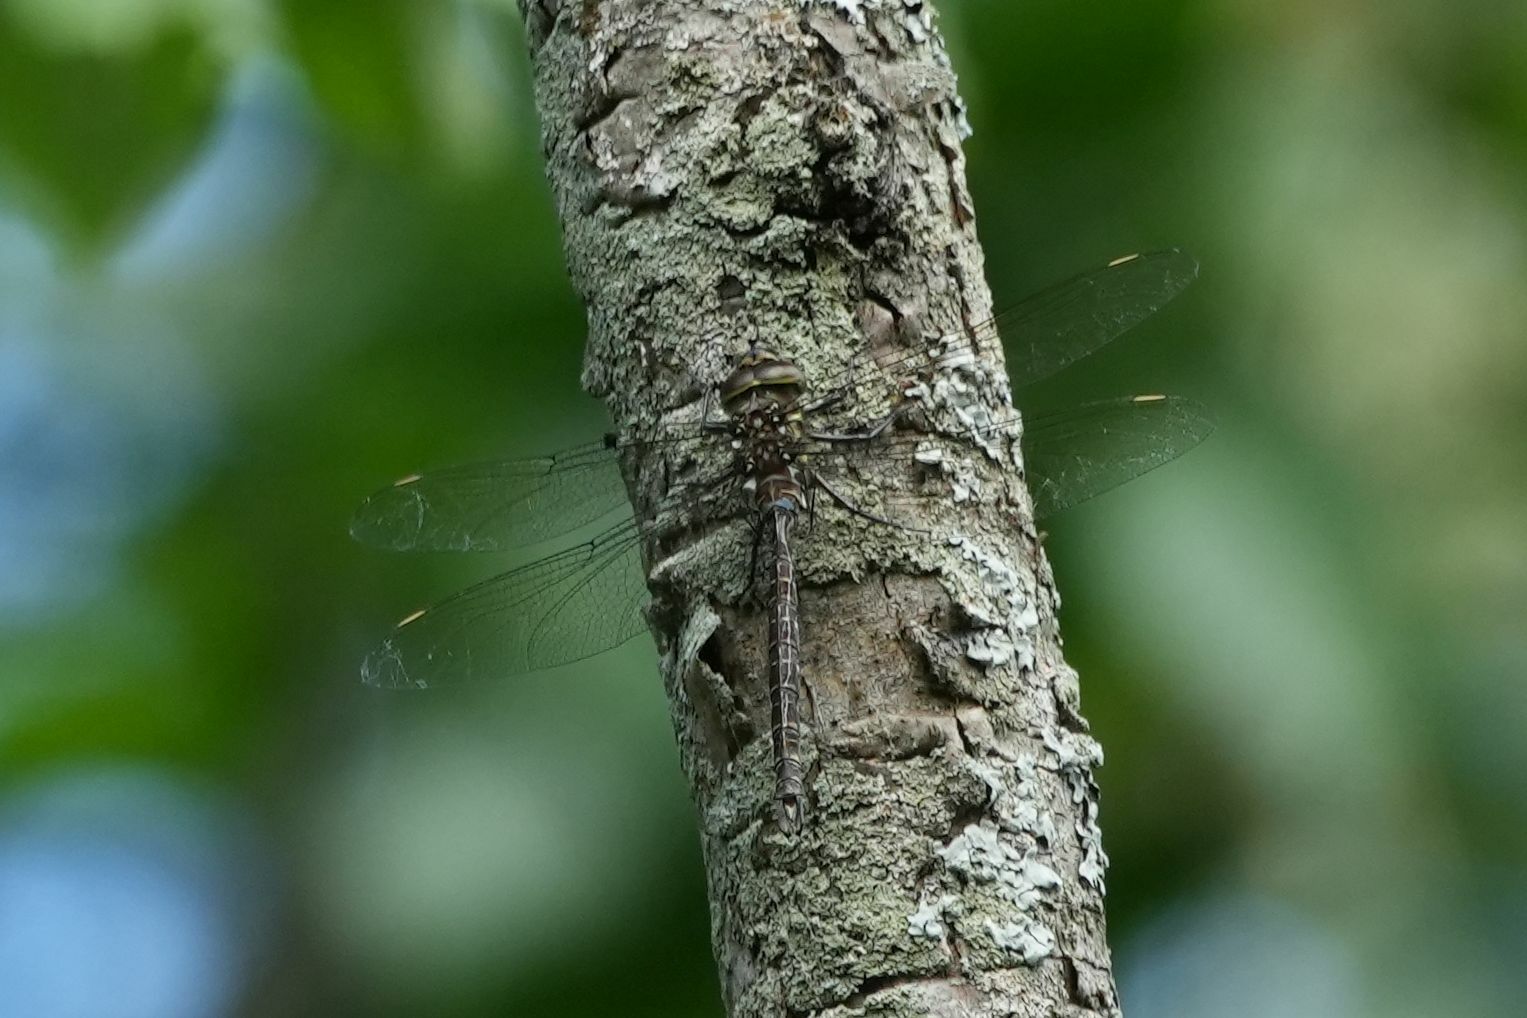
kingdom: Animalia
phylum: Arthropoda
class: Insecta
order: Odonata
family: Aeshnidae
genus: Aeshna
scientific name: Aeshna umbrosa
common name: Shadow darner
